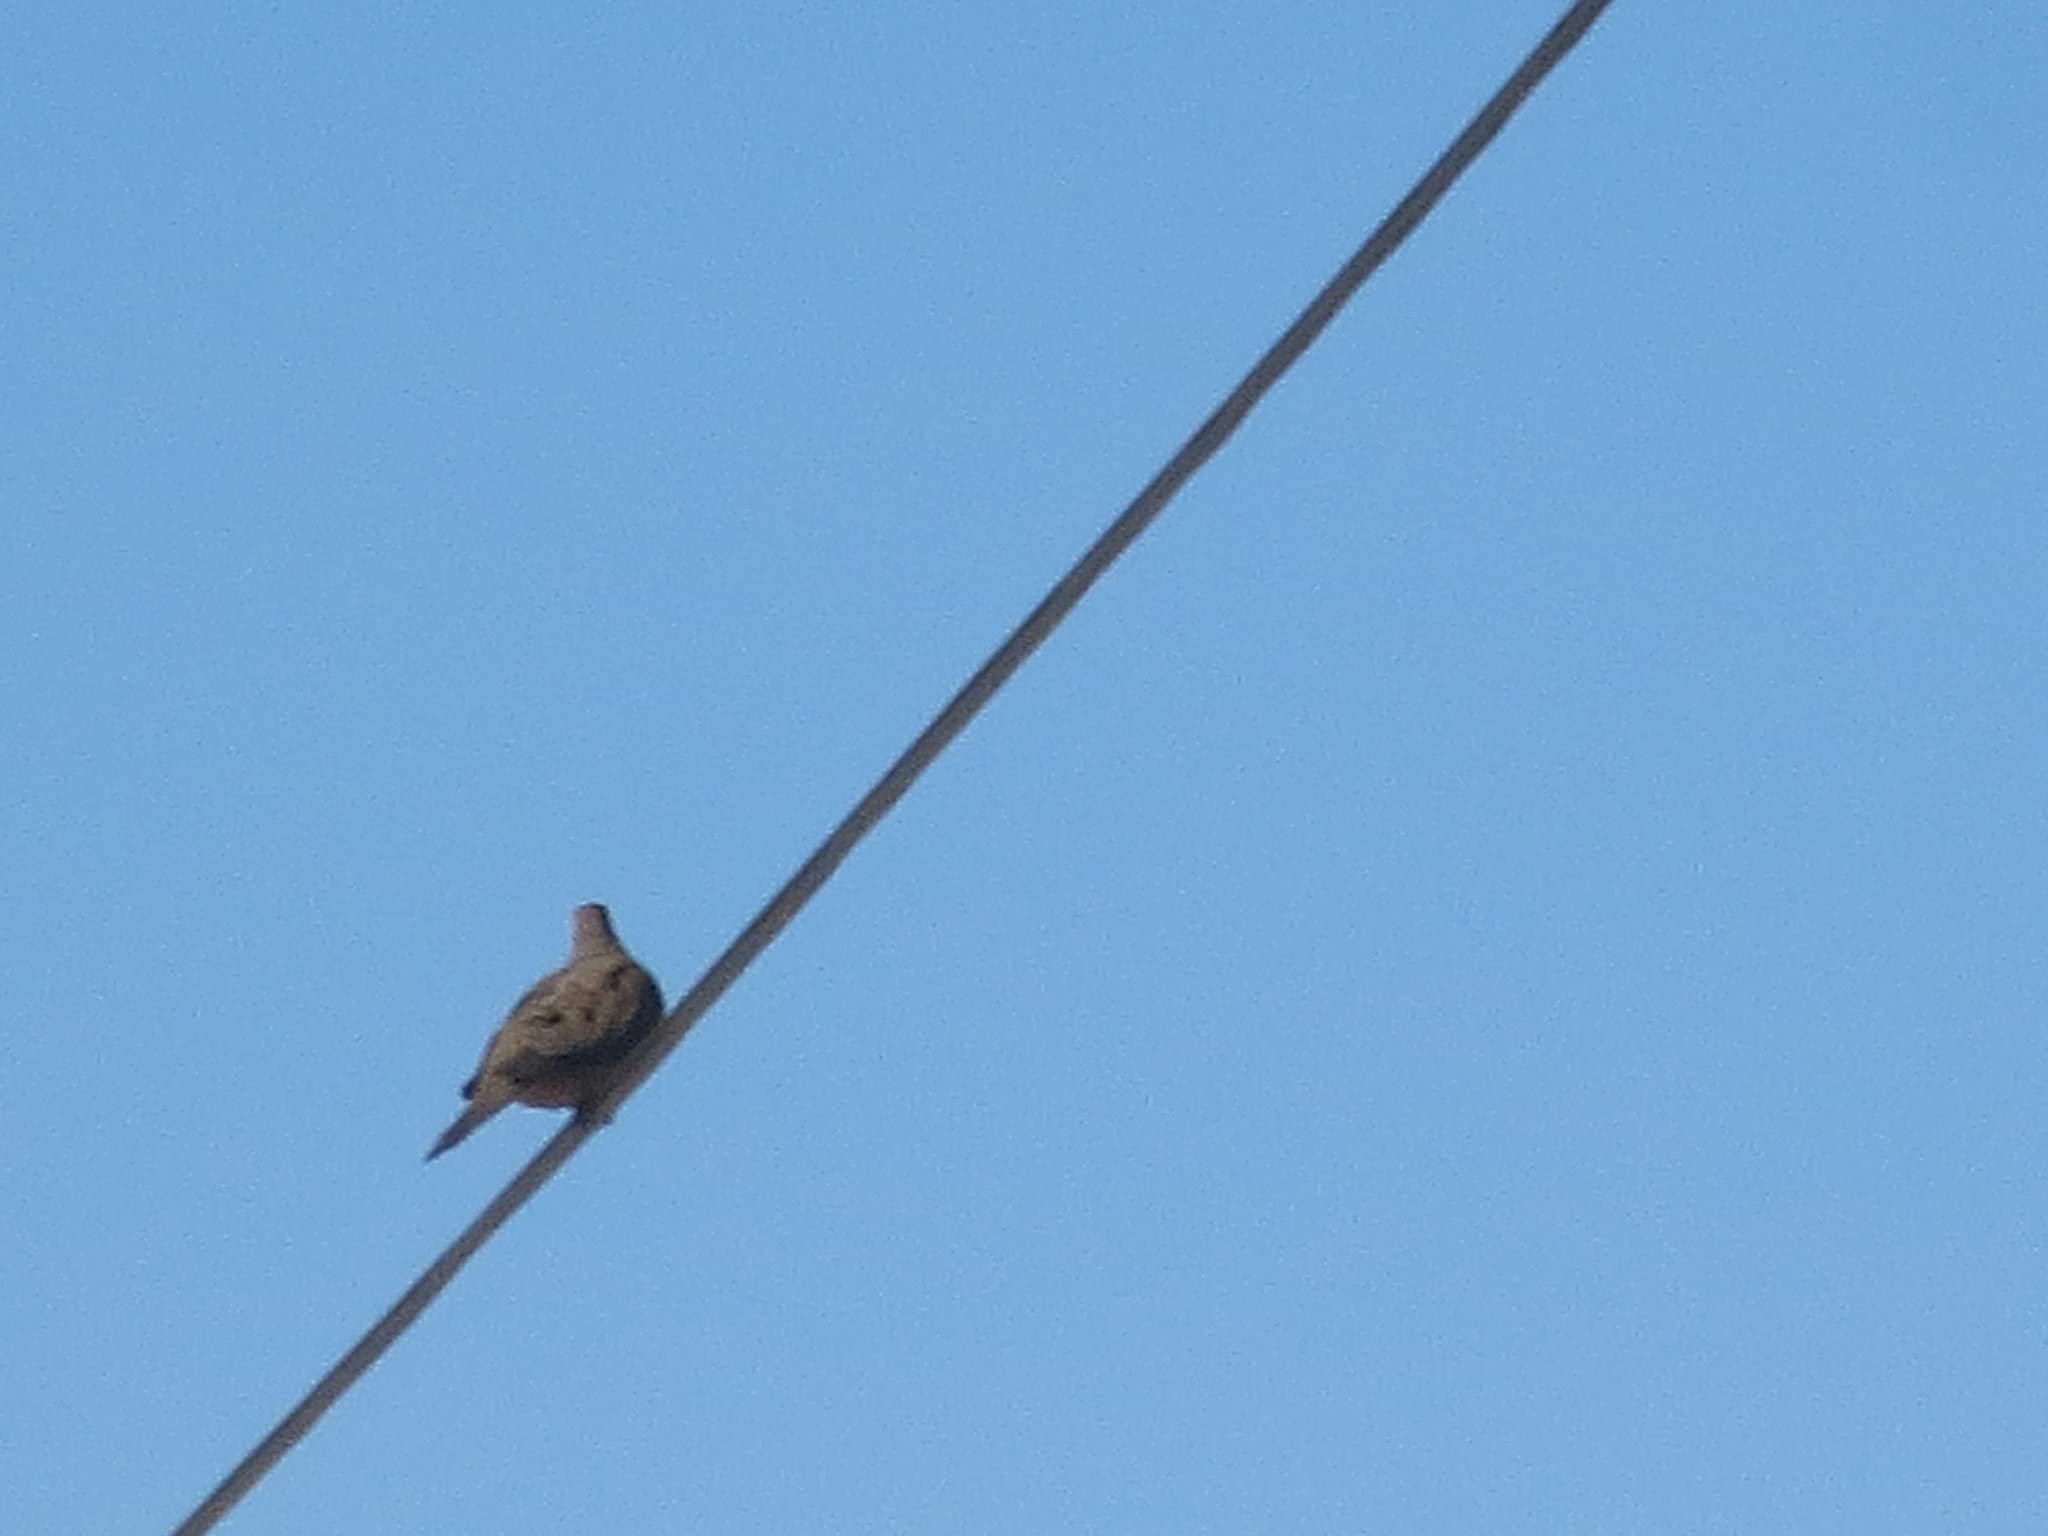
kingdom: Animalia
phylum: Chordata
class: Aves
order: Columbiformes
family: Columbidae
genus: Zenaida
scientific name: Zenaida macroura
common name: Mourning dove
